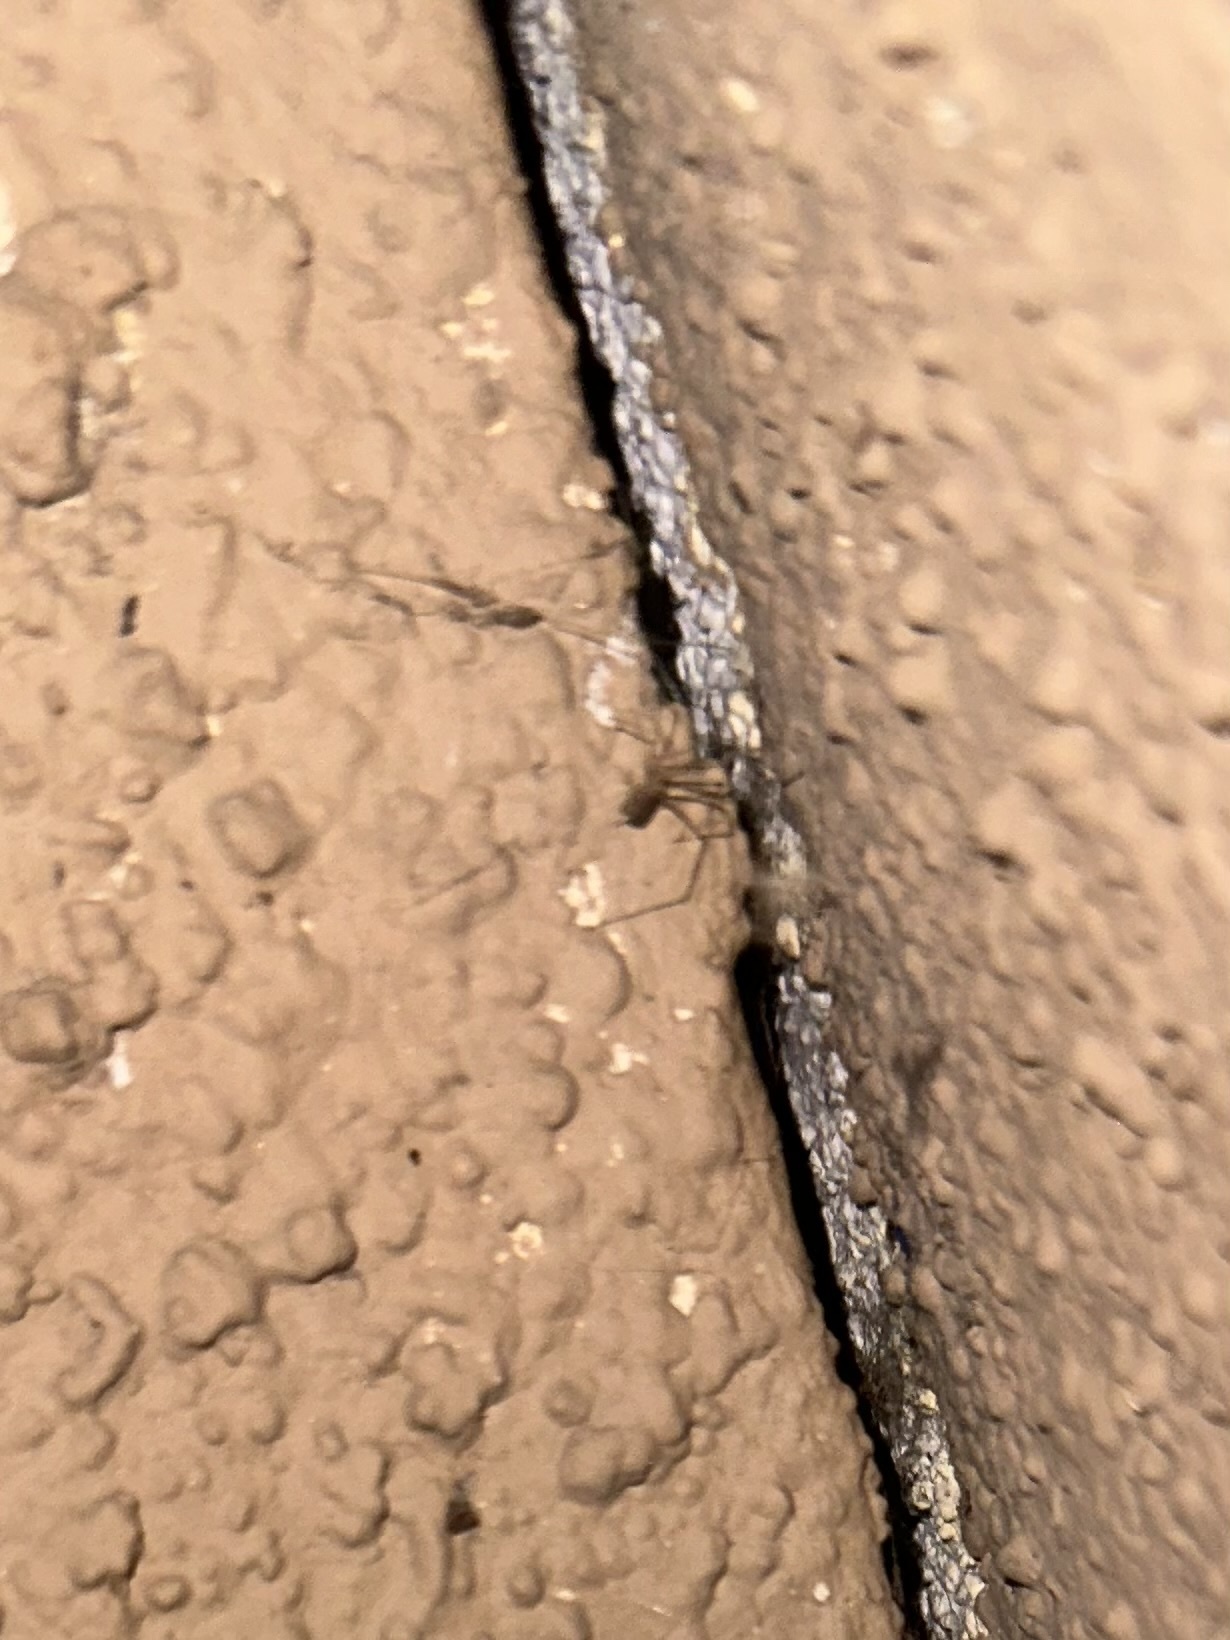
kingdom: Animalia
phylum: Arthropoda
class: Arachnida
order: Araneae
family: Pholcidae
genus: Pholcus
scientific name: Pholcus phalangioides
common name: Longbodied cellar spider
